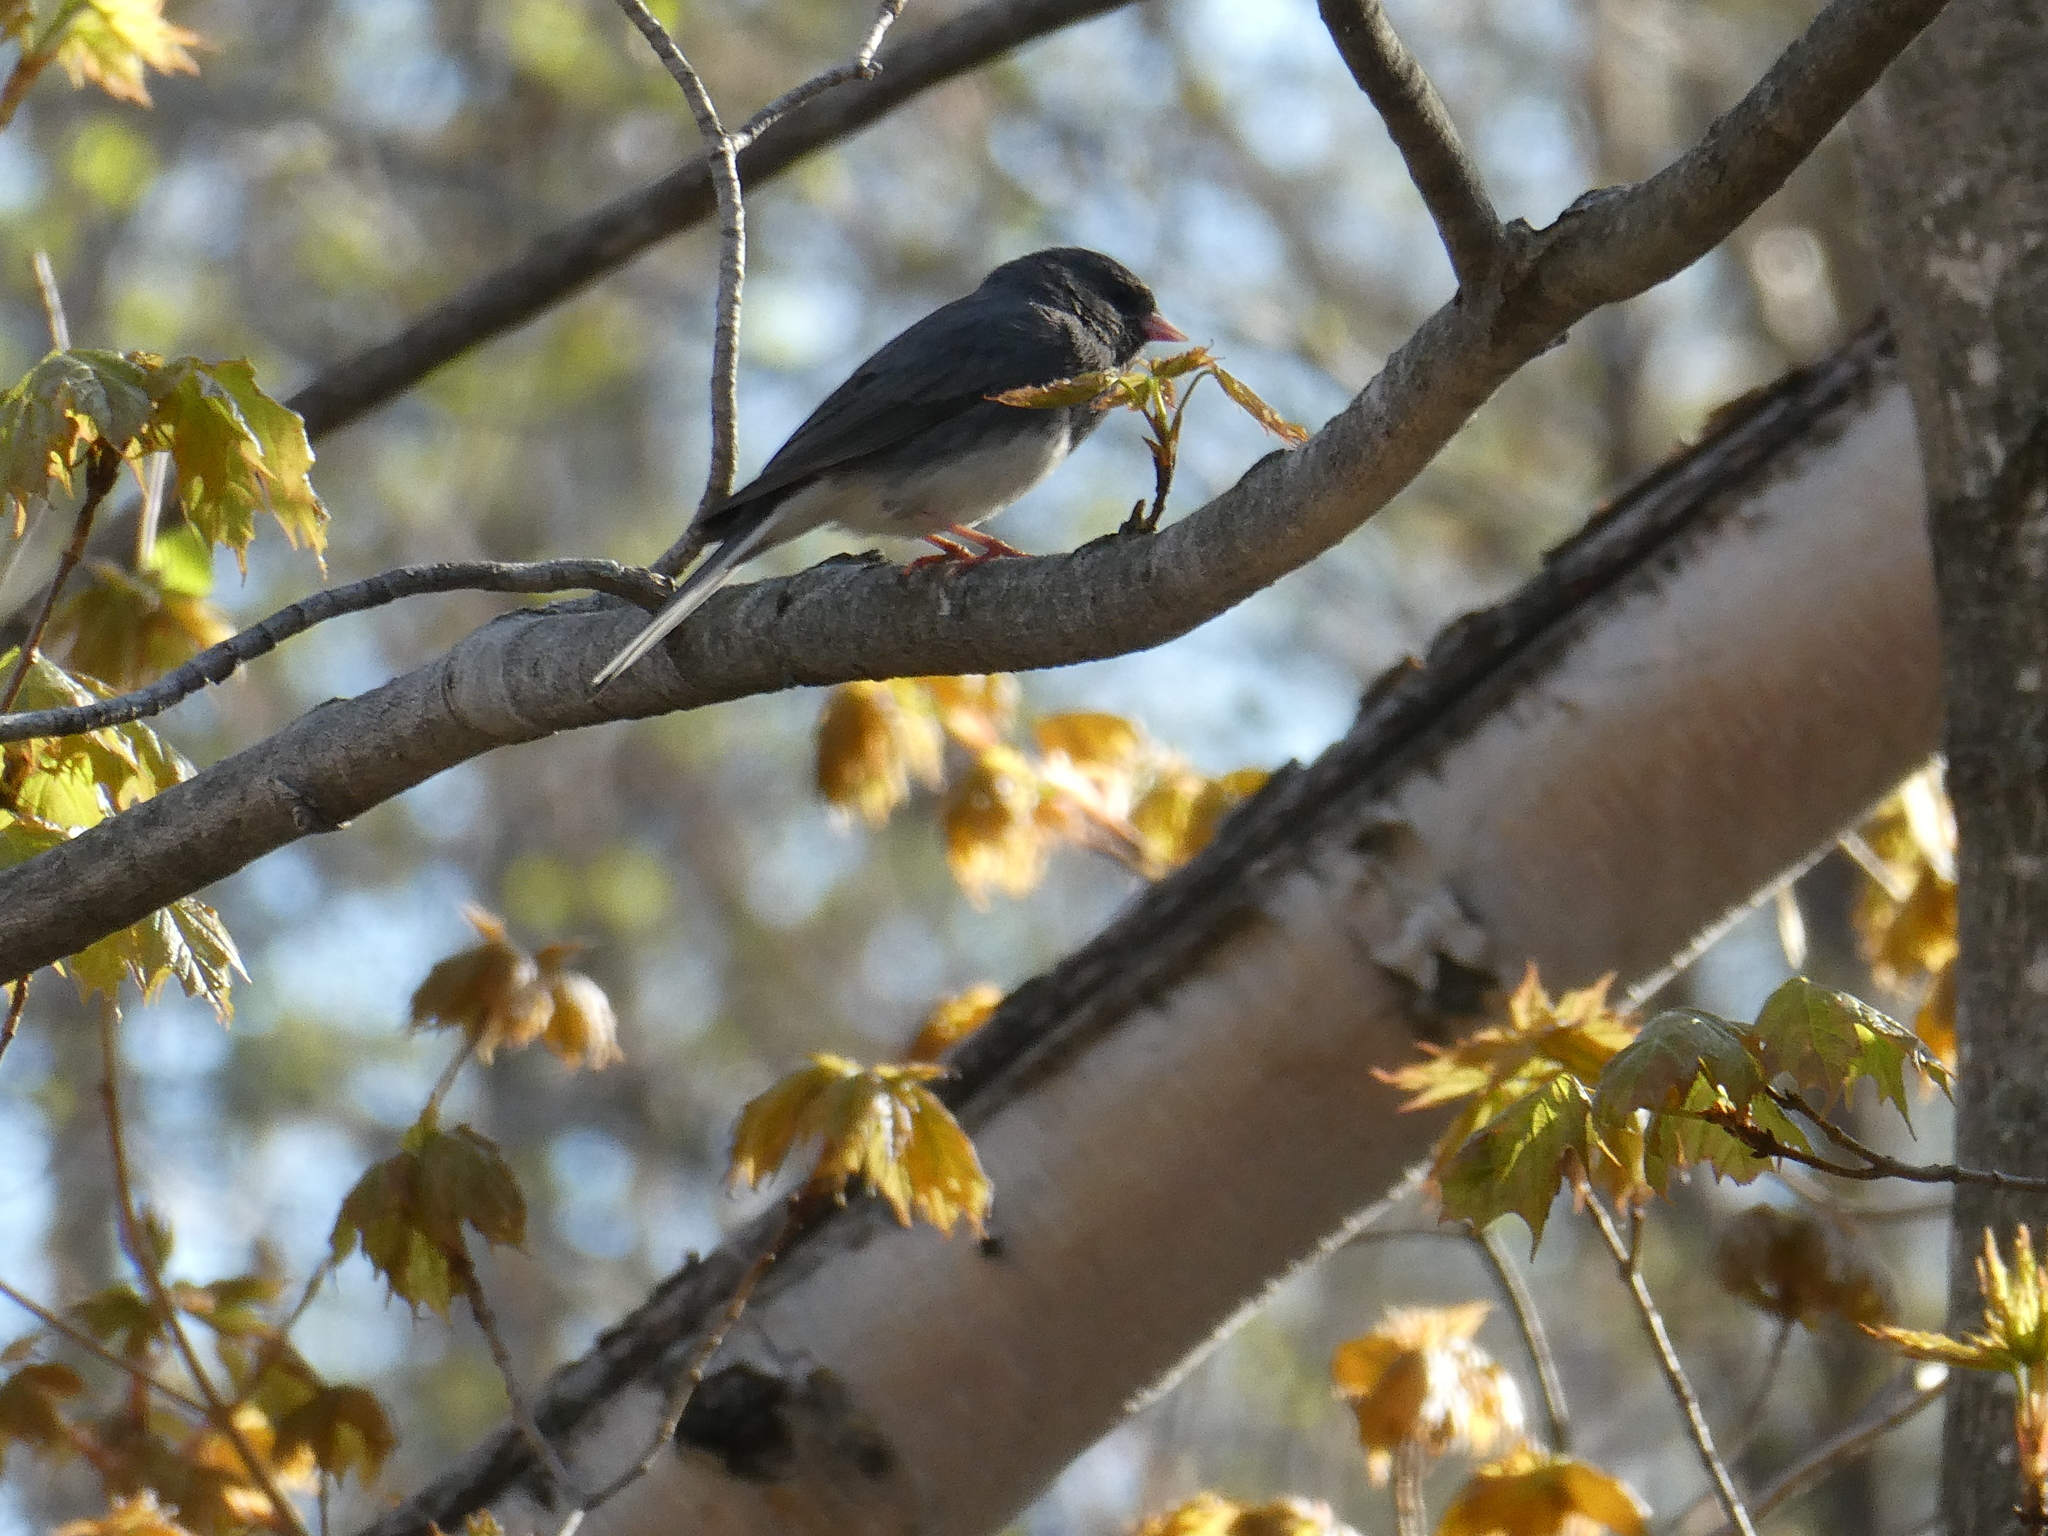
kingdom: Animalia
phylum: Chordata
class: Aves
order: Passeriformes
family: Passerellidae
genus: Junco
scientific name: Junco hyemalis
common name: Dark-eyed junco
